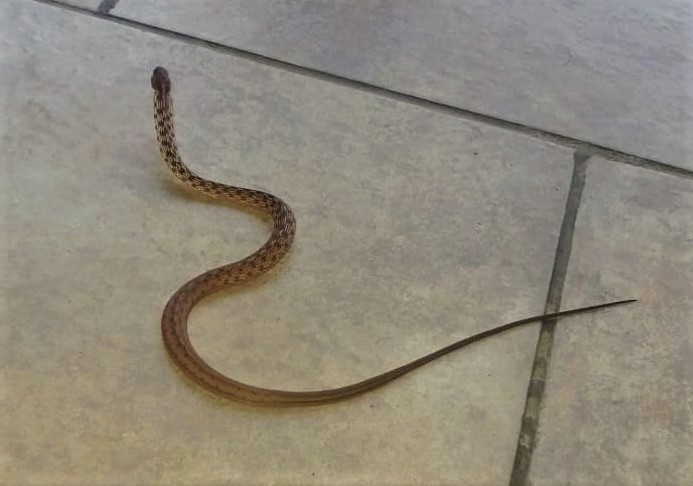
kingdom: Animalia
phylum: Chordata
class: Squamata
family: Colubridae
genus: Thamnodynastes
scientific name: Thamnodynastes pallidus
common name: Amazon coastal house snake
